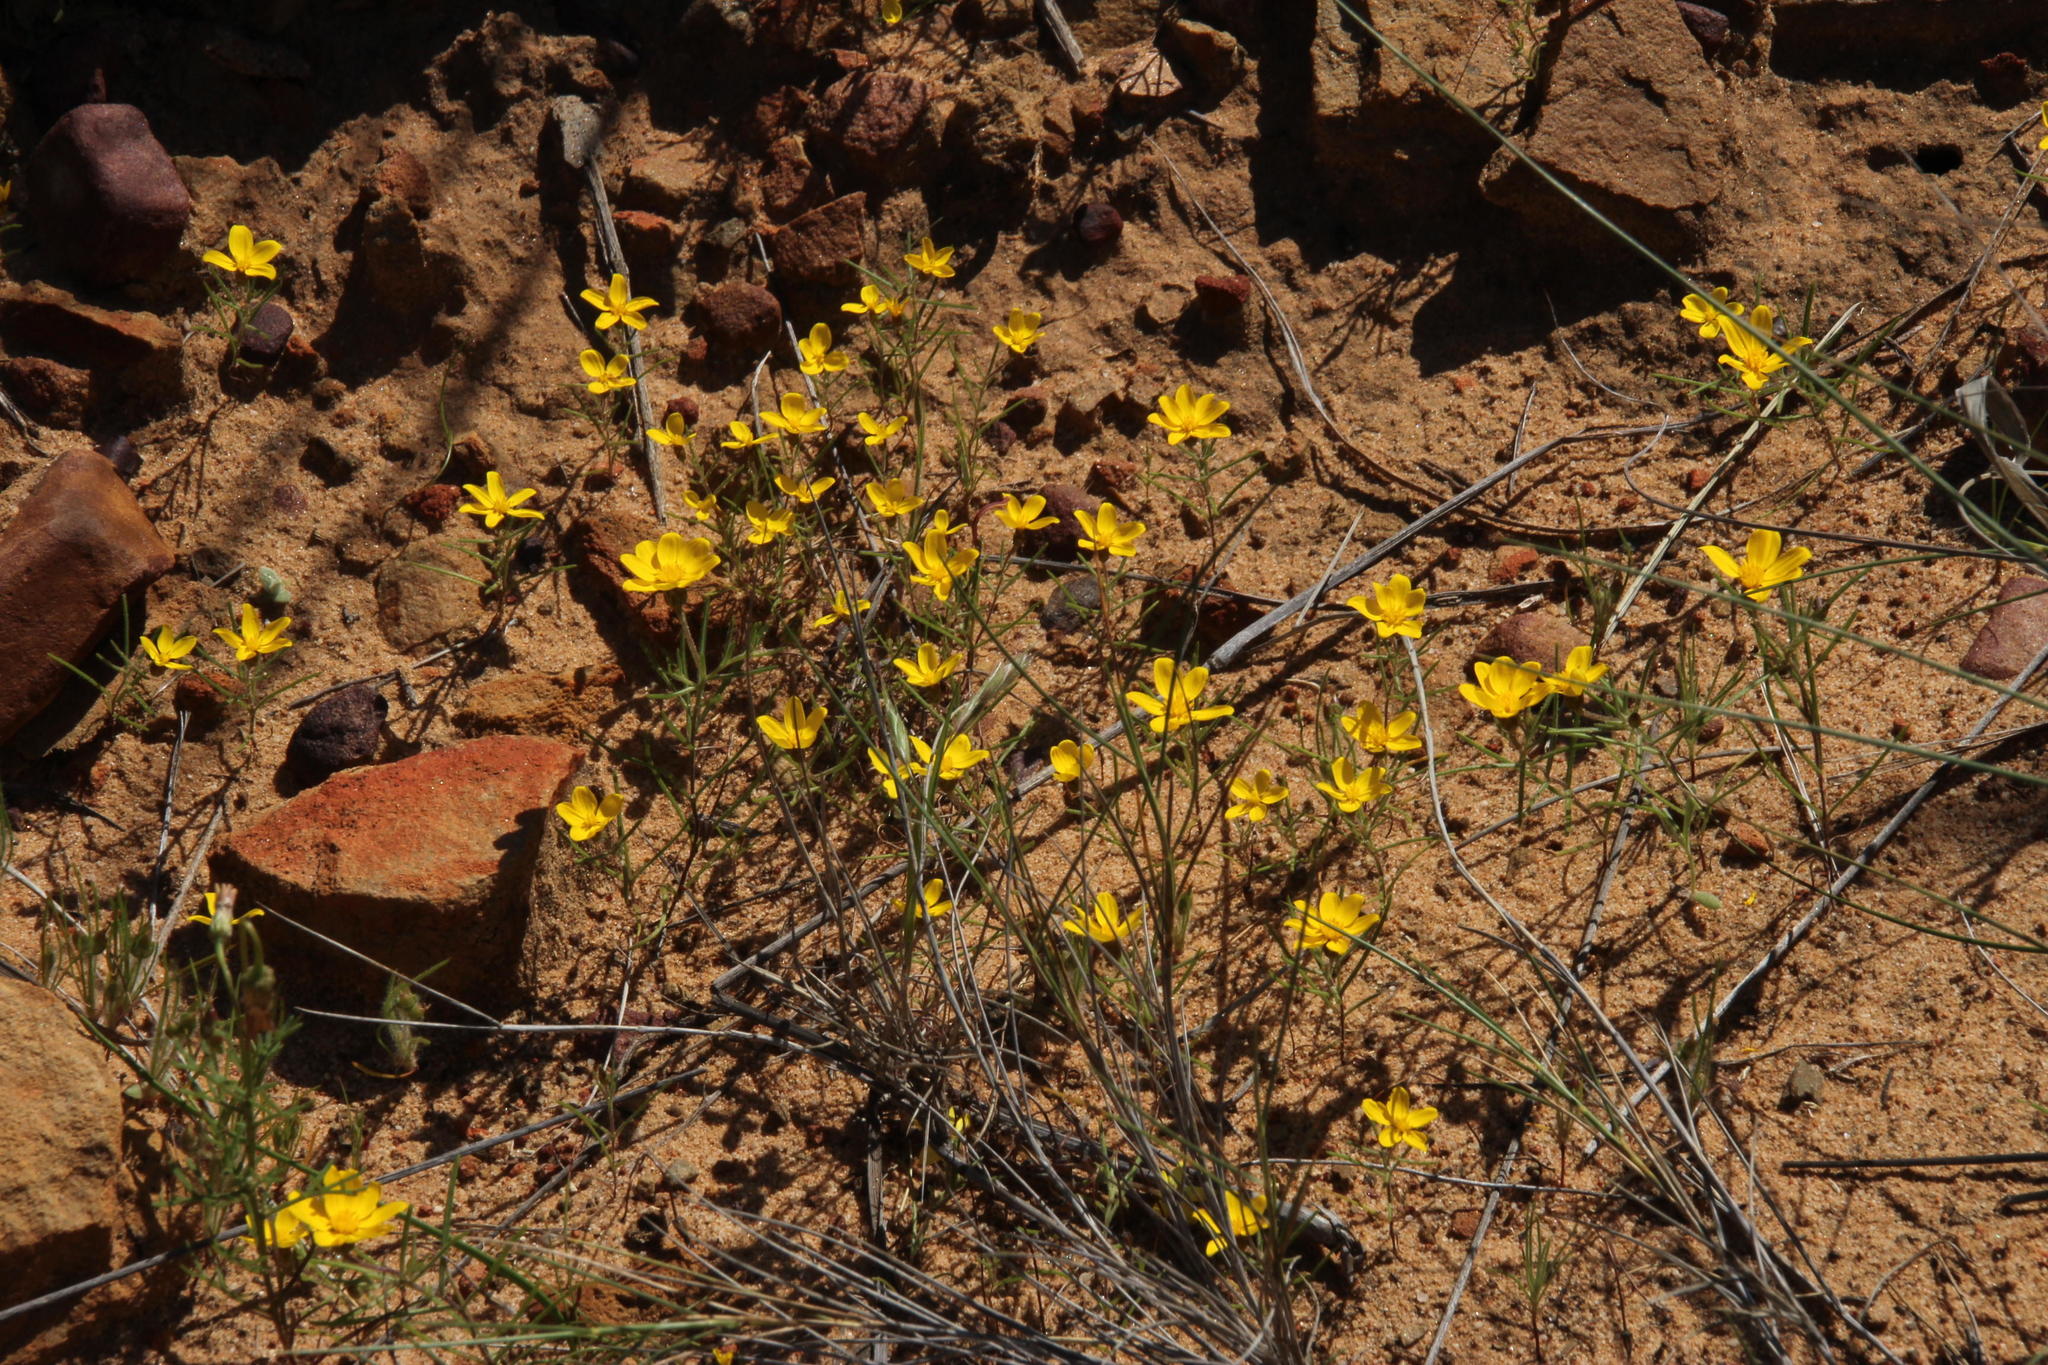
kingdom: Plantae
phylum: Tracheophyta
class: Magnoliopsida
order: Asterales
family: Asteraceae
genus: Rhynchopsidium
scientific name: Rhynchopsidium pumilum
